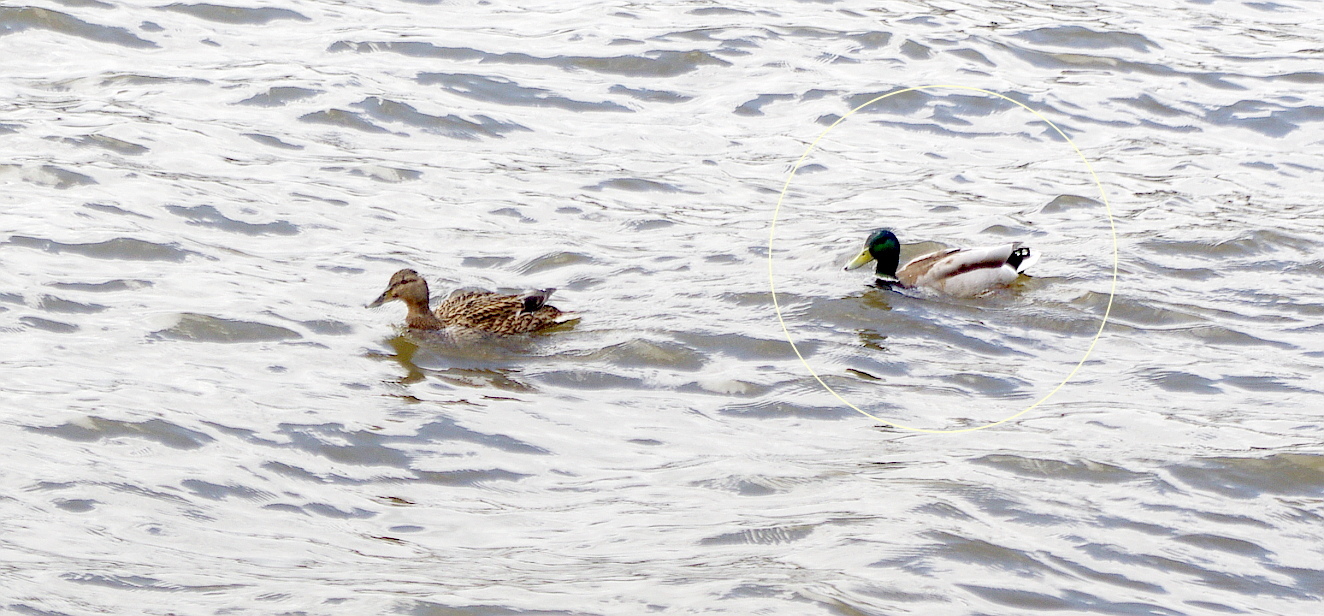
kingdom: Animalia
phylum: Chordata
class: Aves
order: Anseriformes
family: Anatidae
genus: Anas
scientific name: Anas platyrhynchos
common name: Mallard
